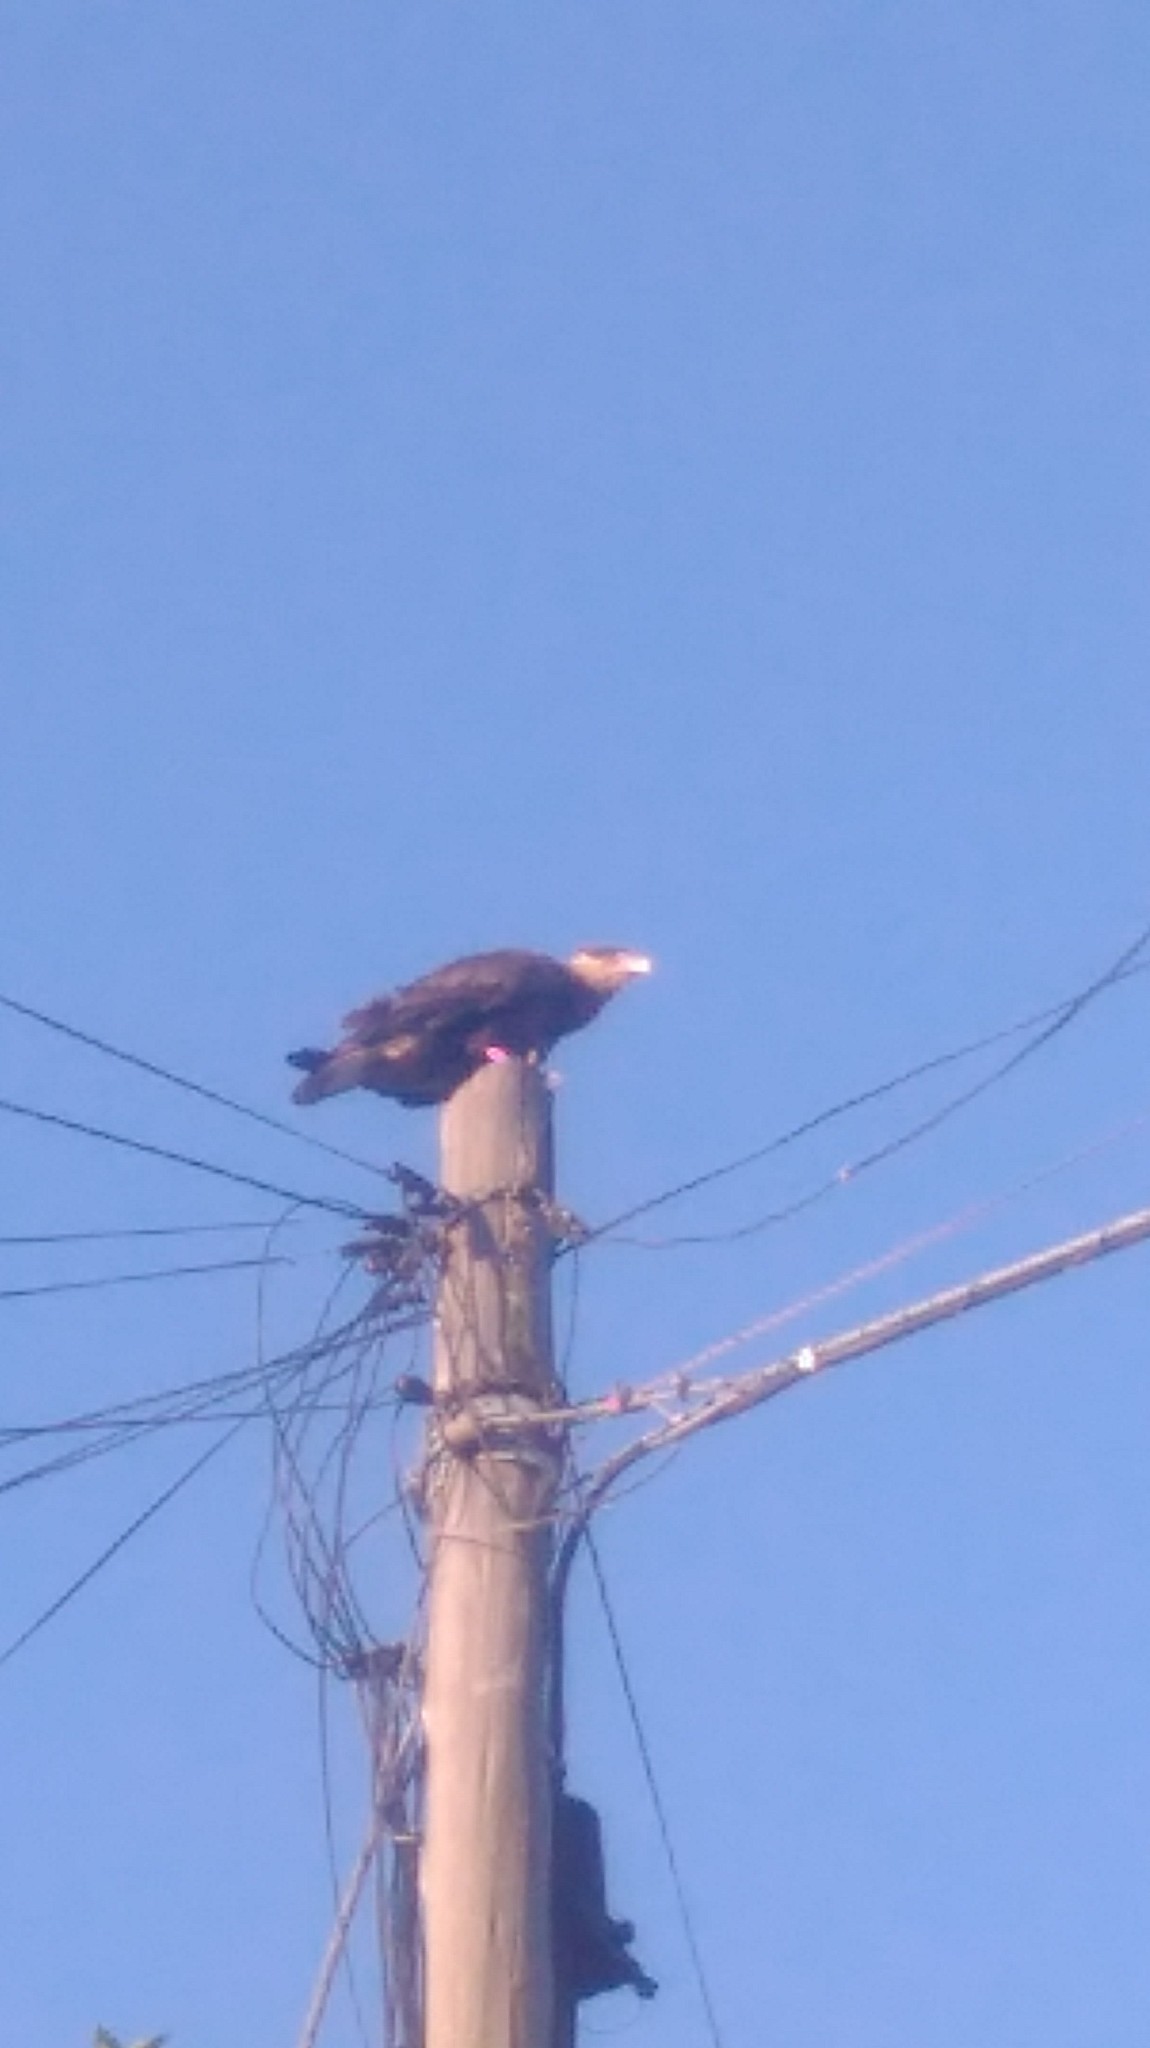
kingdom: Animalia
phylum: Chordata
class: Aves
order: Falconiformes
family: Falconidae
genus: Caracara
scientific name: Caracara plancus
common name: Southern caracara
